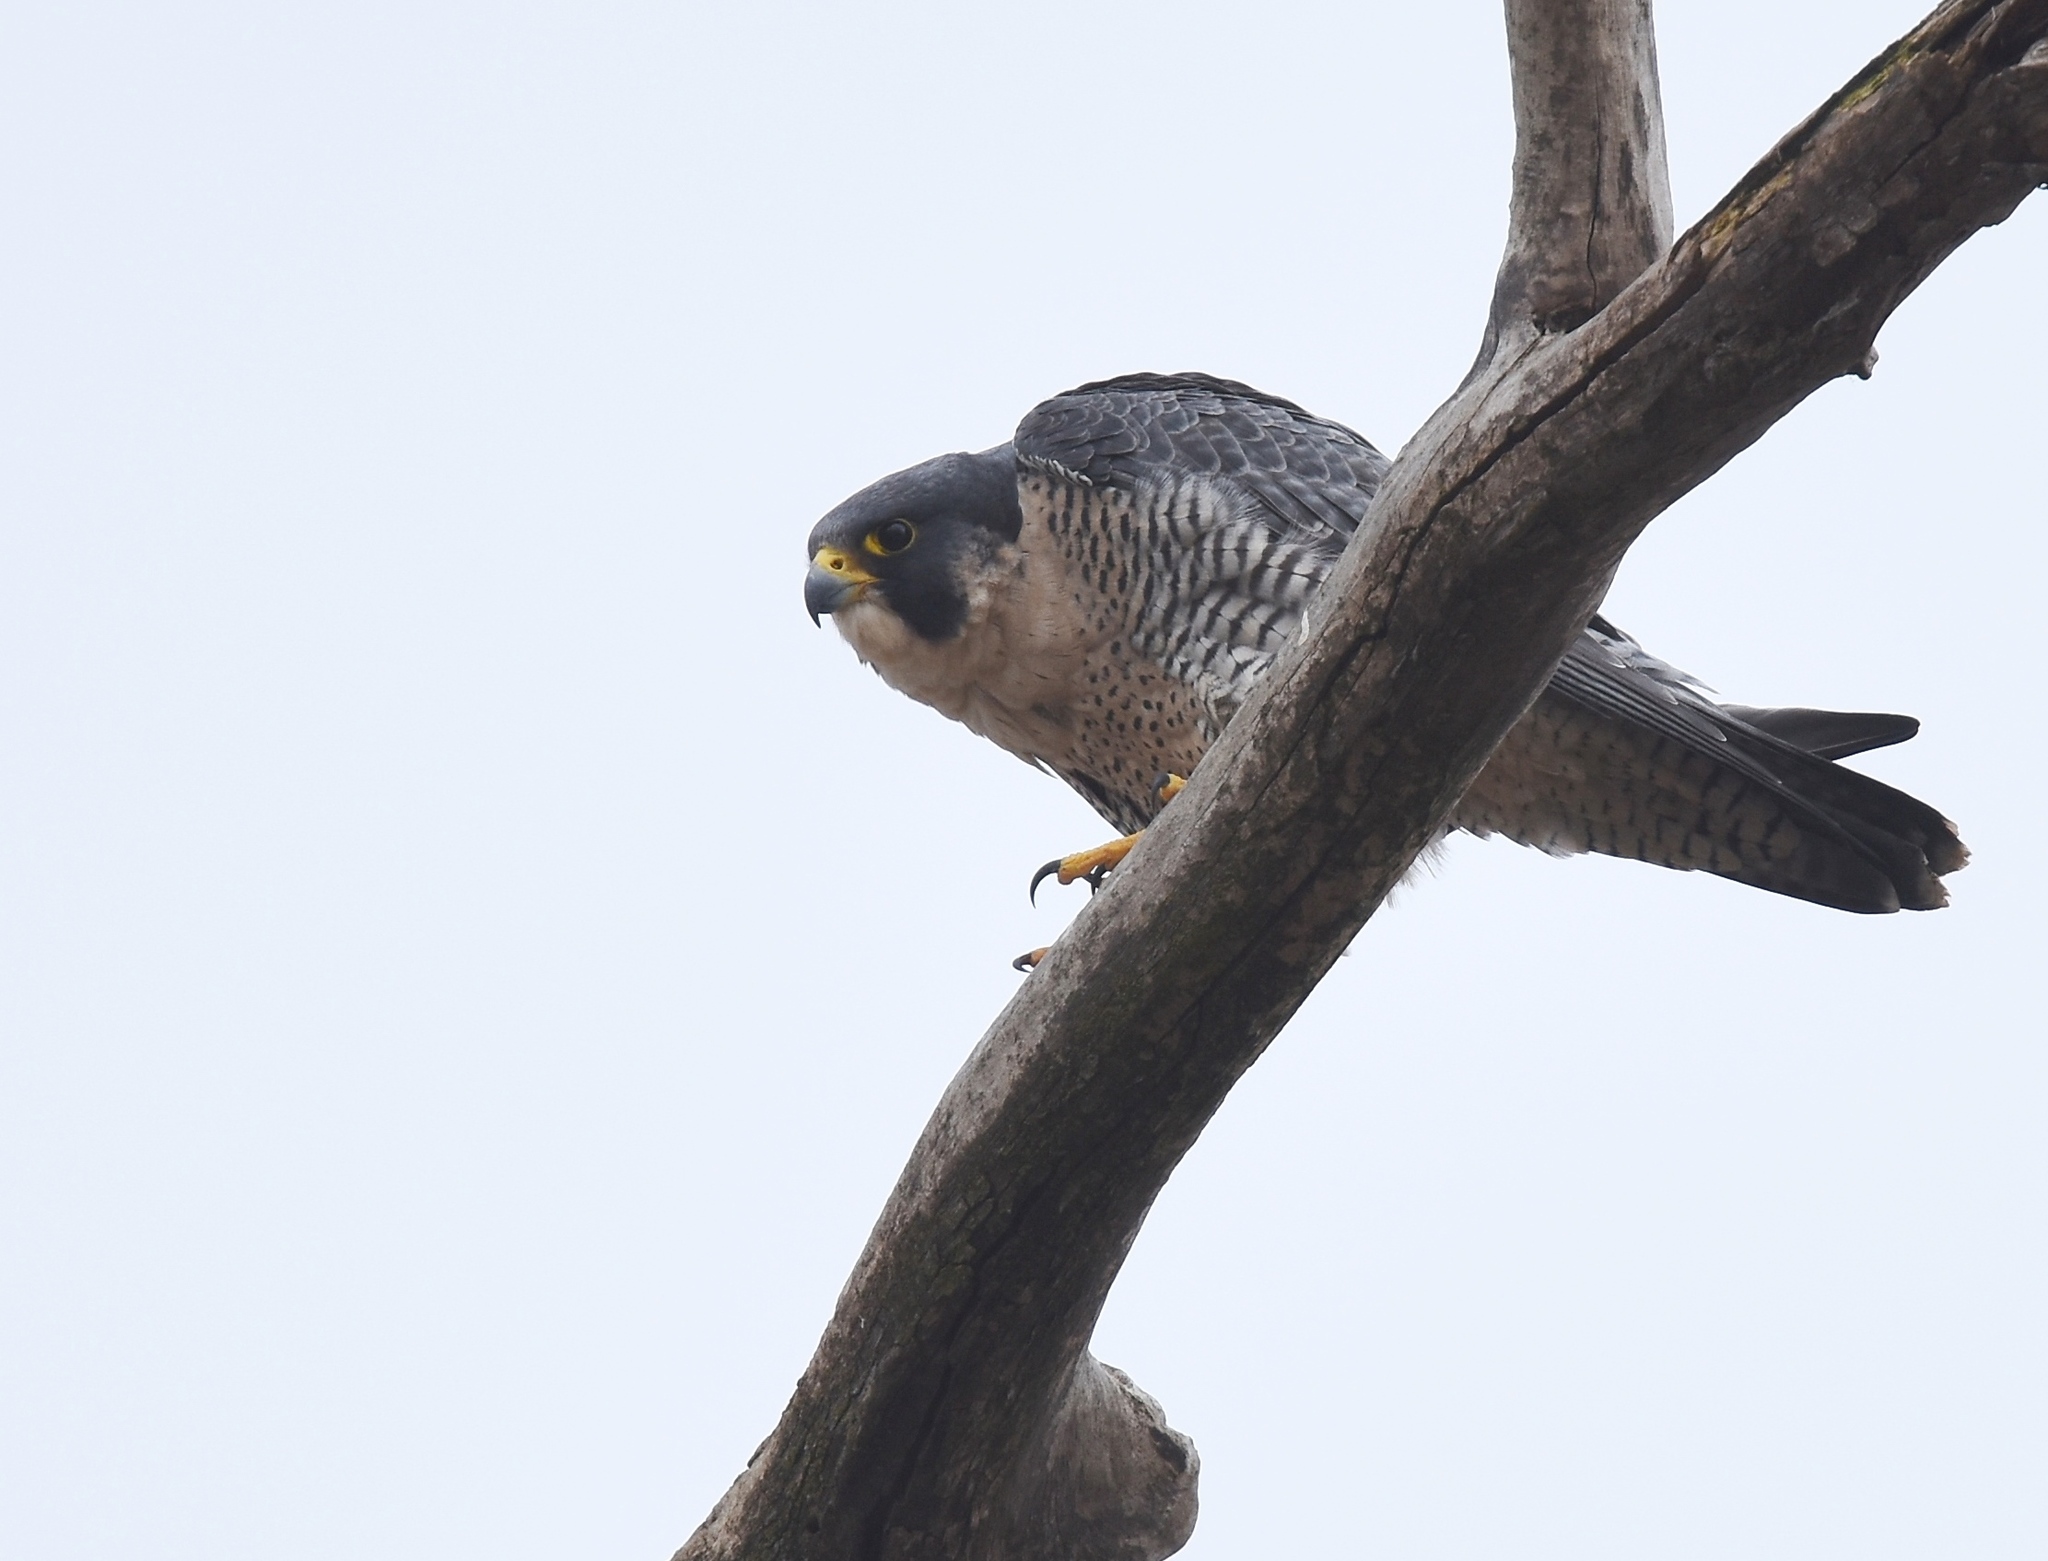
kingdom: Animalia
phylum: Chordata
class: Aves
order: Falconiformes
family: Falconidae
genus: Falco
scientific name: Falco peregrinus
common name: Peregrine falcon
